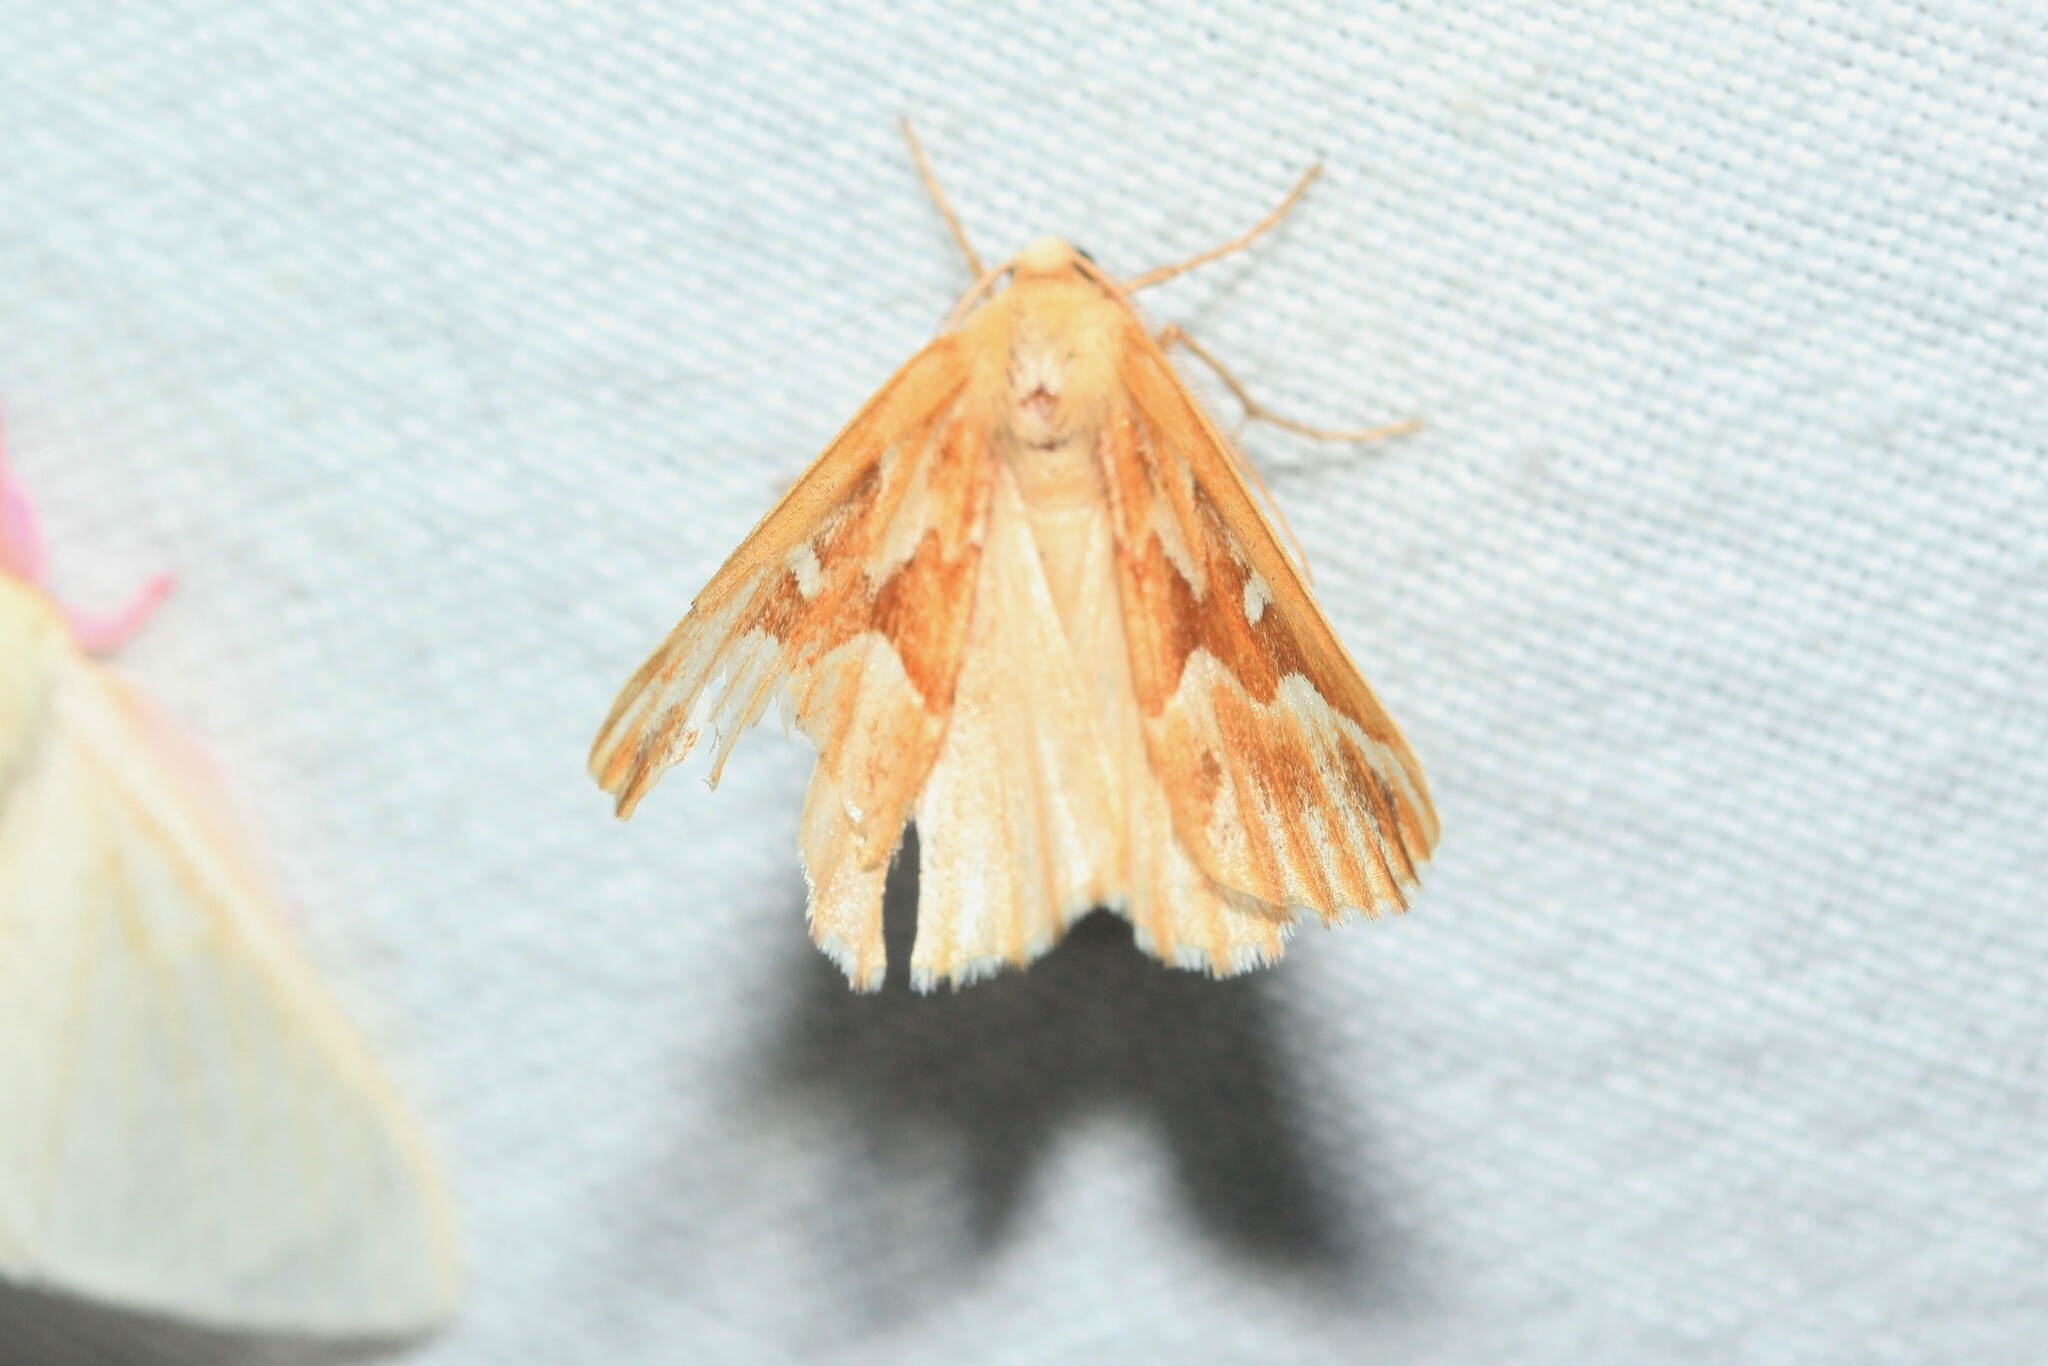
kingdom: Animalia
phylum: Arthropoda
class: Insecta
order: Lepidoptera
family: Geometridae
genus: Caripeta
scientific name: Caripeta piniata
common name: Northern pine looper moth
